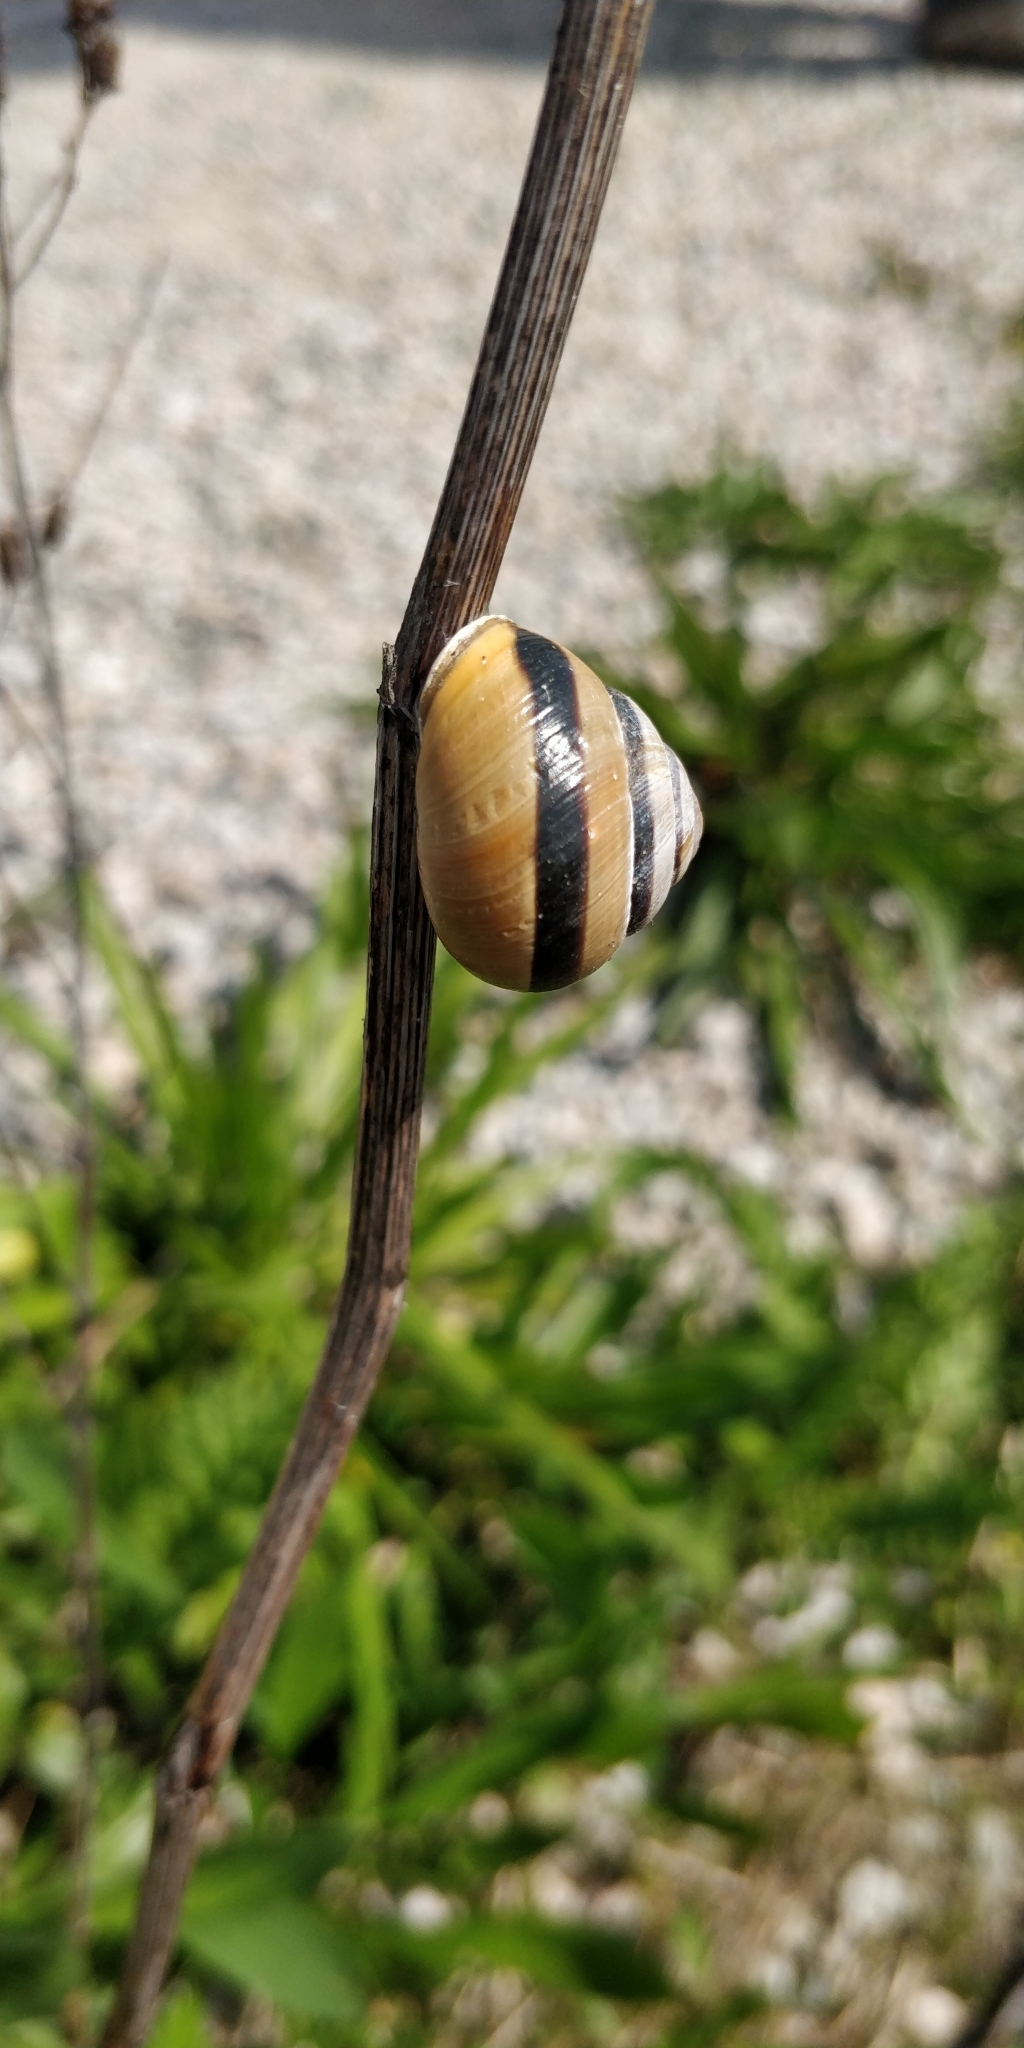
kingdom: Animalia
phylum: Mollusca
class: Gastropoda
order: Stylommatophora
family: Helicidae
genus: Cepaea
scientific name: Cepaea nemoralis
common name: Grovesnail
